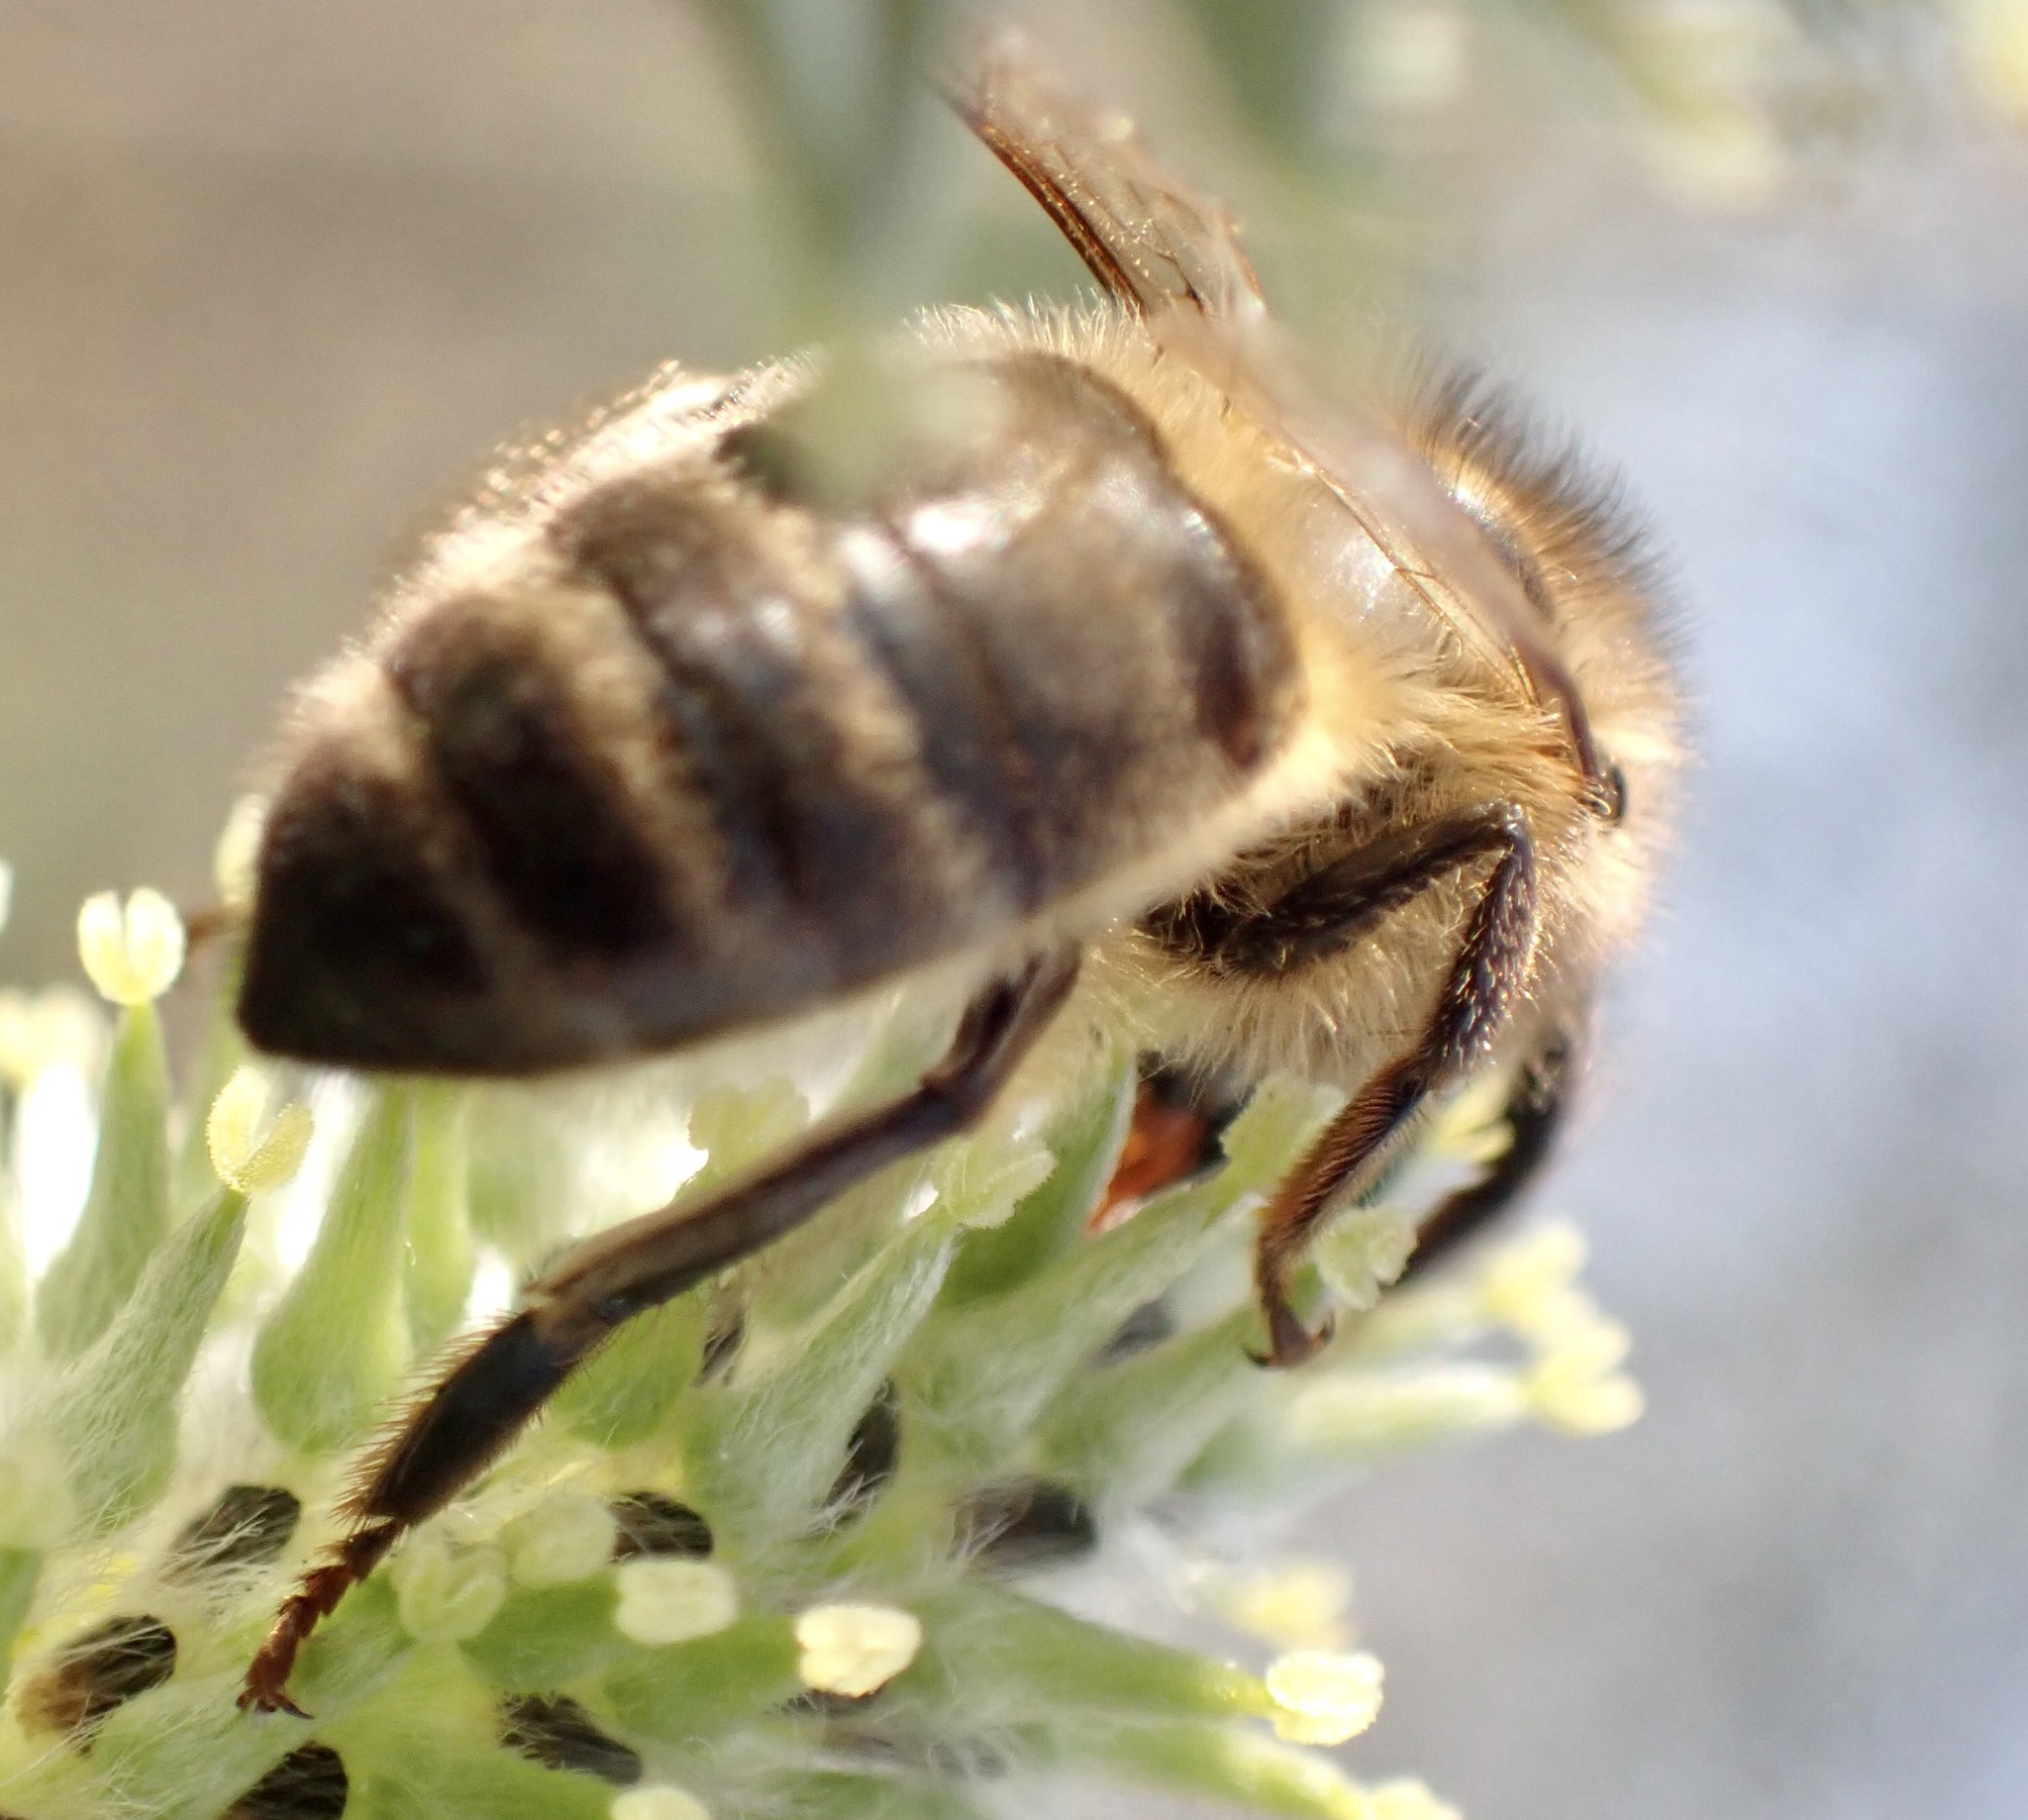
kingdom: Animalia
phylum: Arthropoda
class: Insecta
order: Hymenoptera
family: Apidae
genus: Apis
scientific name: Apis mellifera
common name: Honey bee
